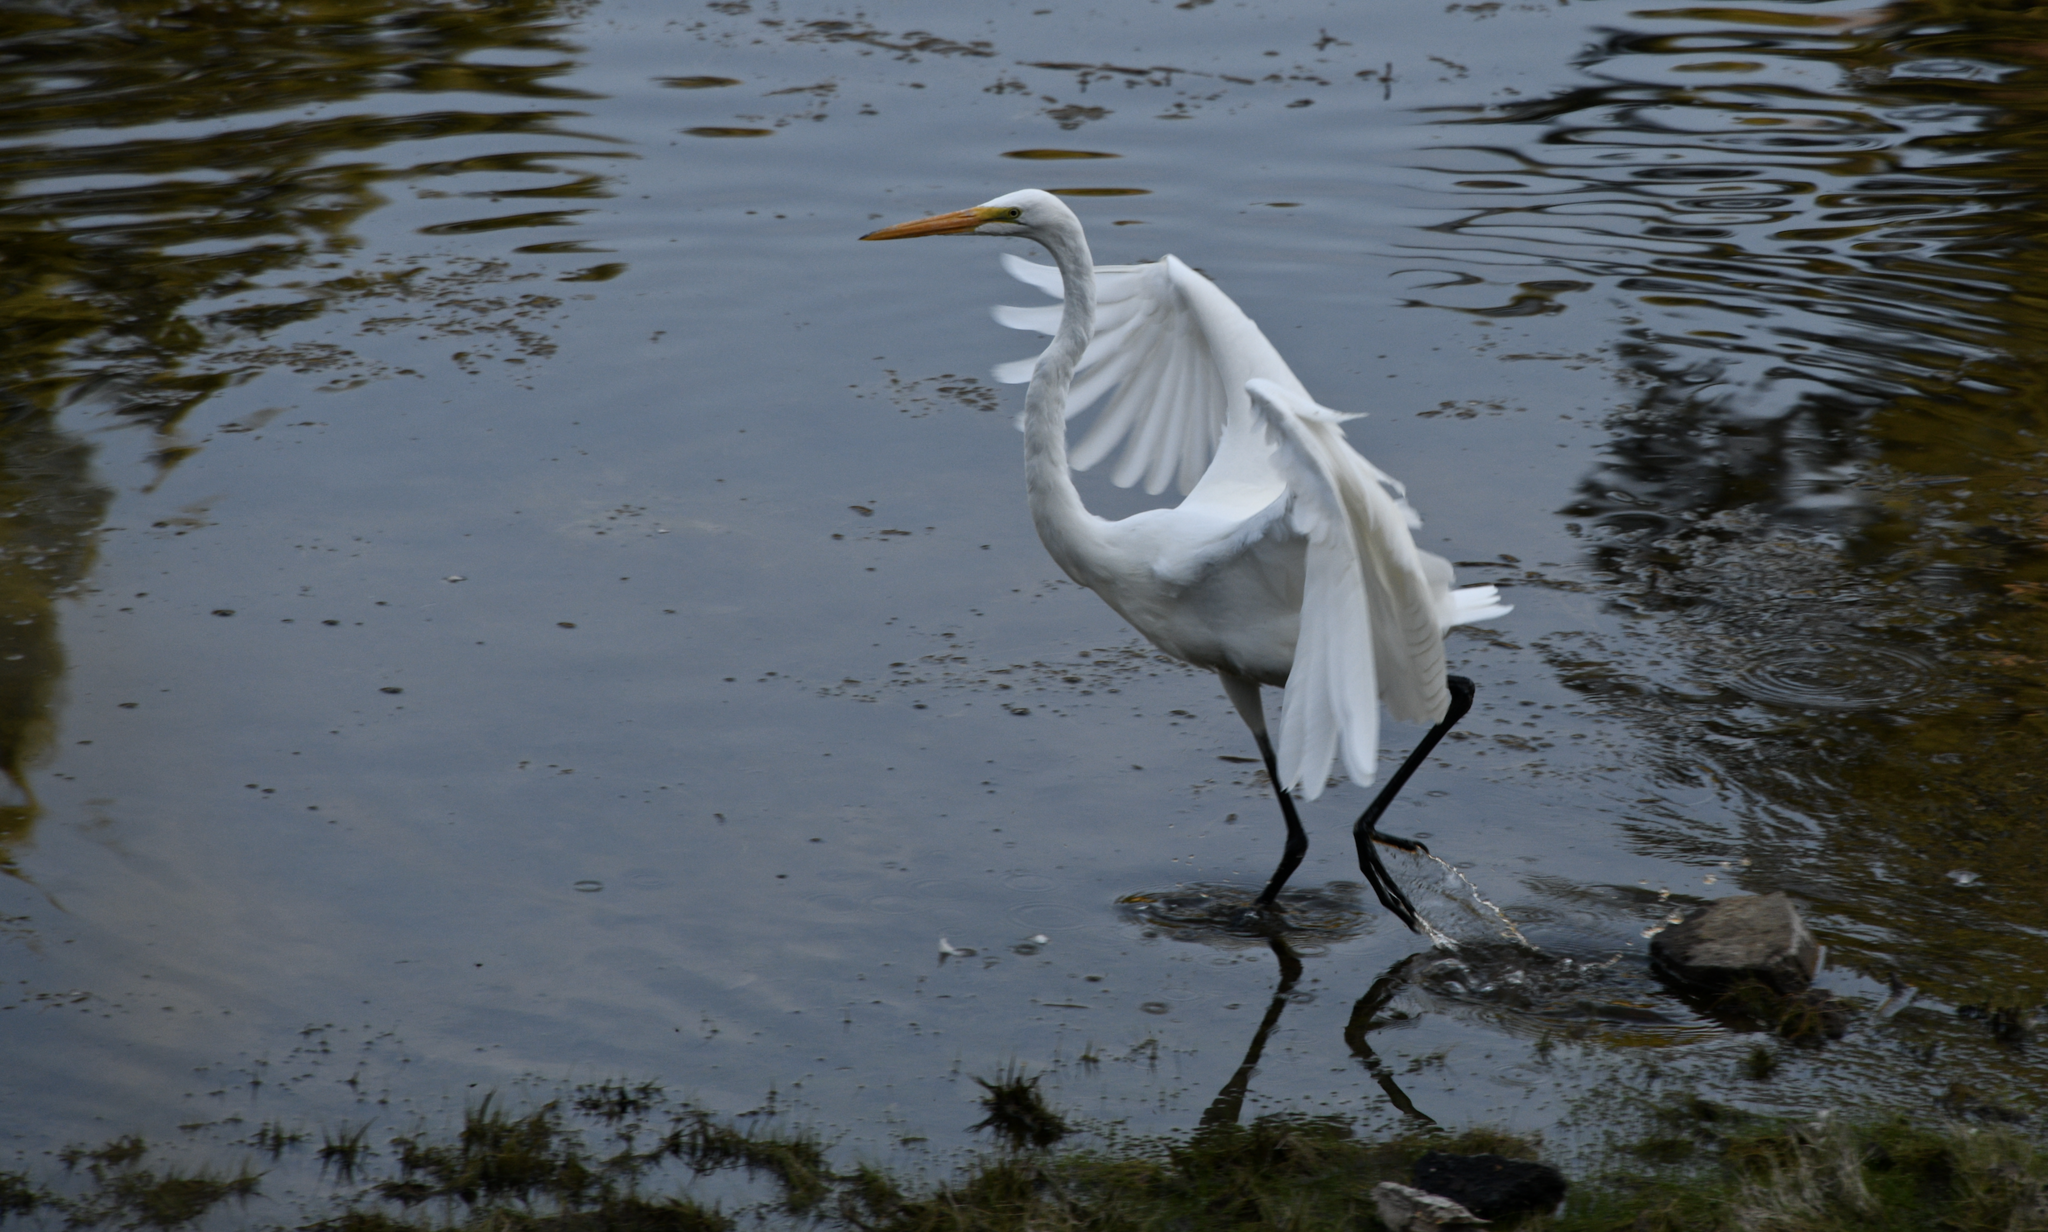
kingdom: Animalia
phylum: Chordata
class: Aves
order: Pelecaniformes
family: Ardeidae
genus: Ardea
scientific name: Ardea alba
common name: Great egret
